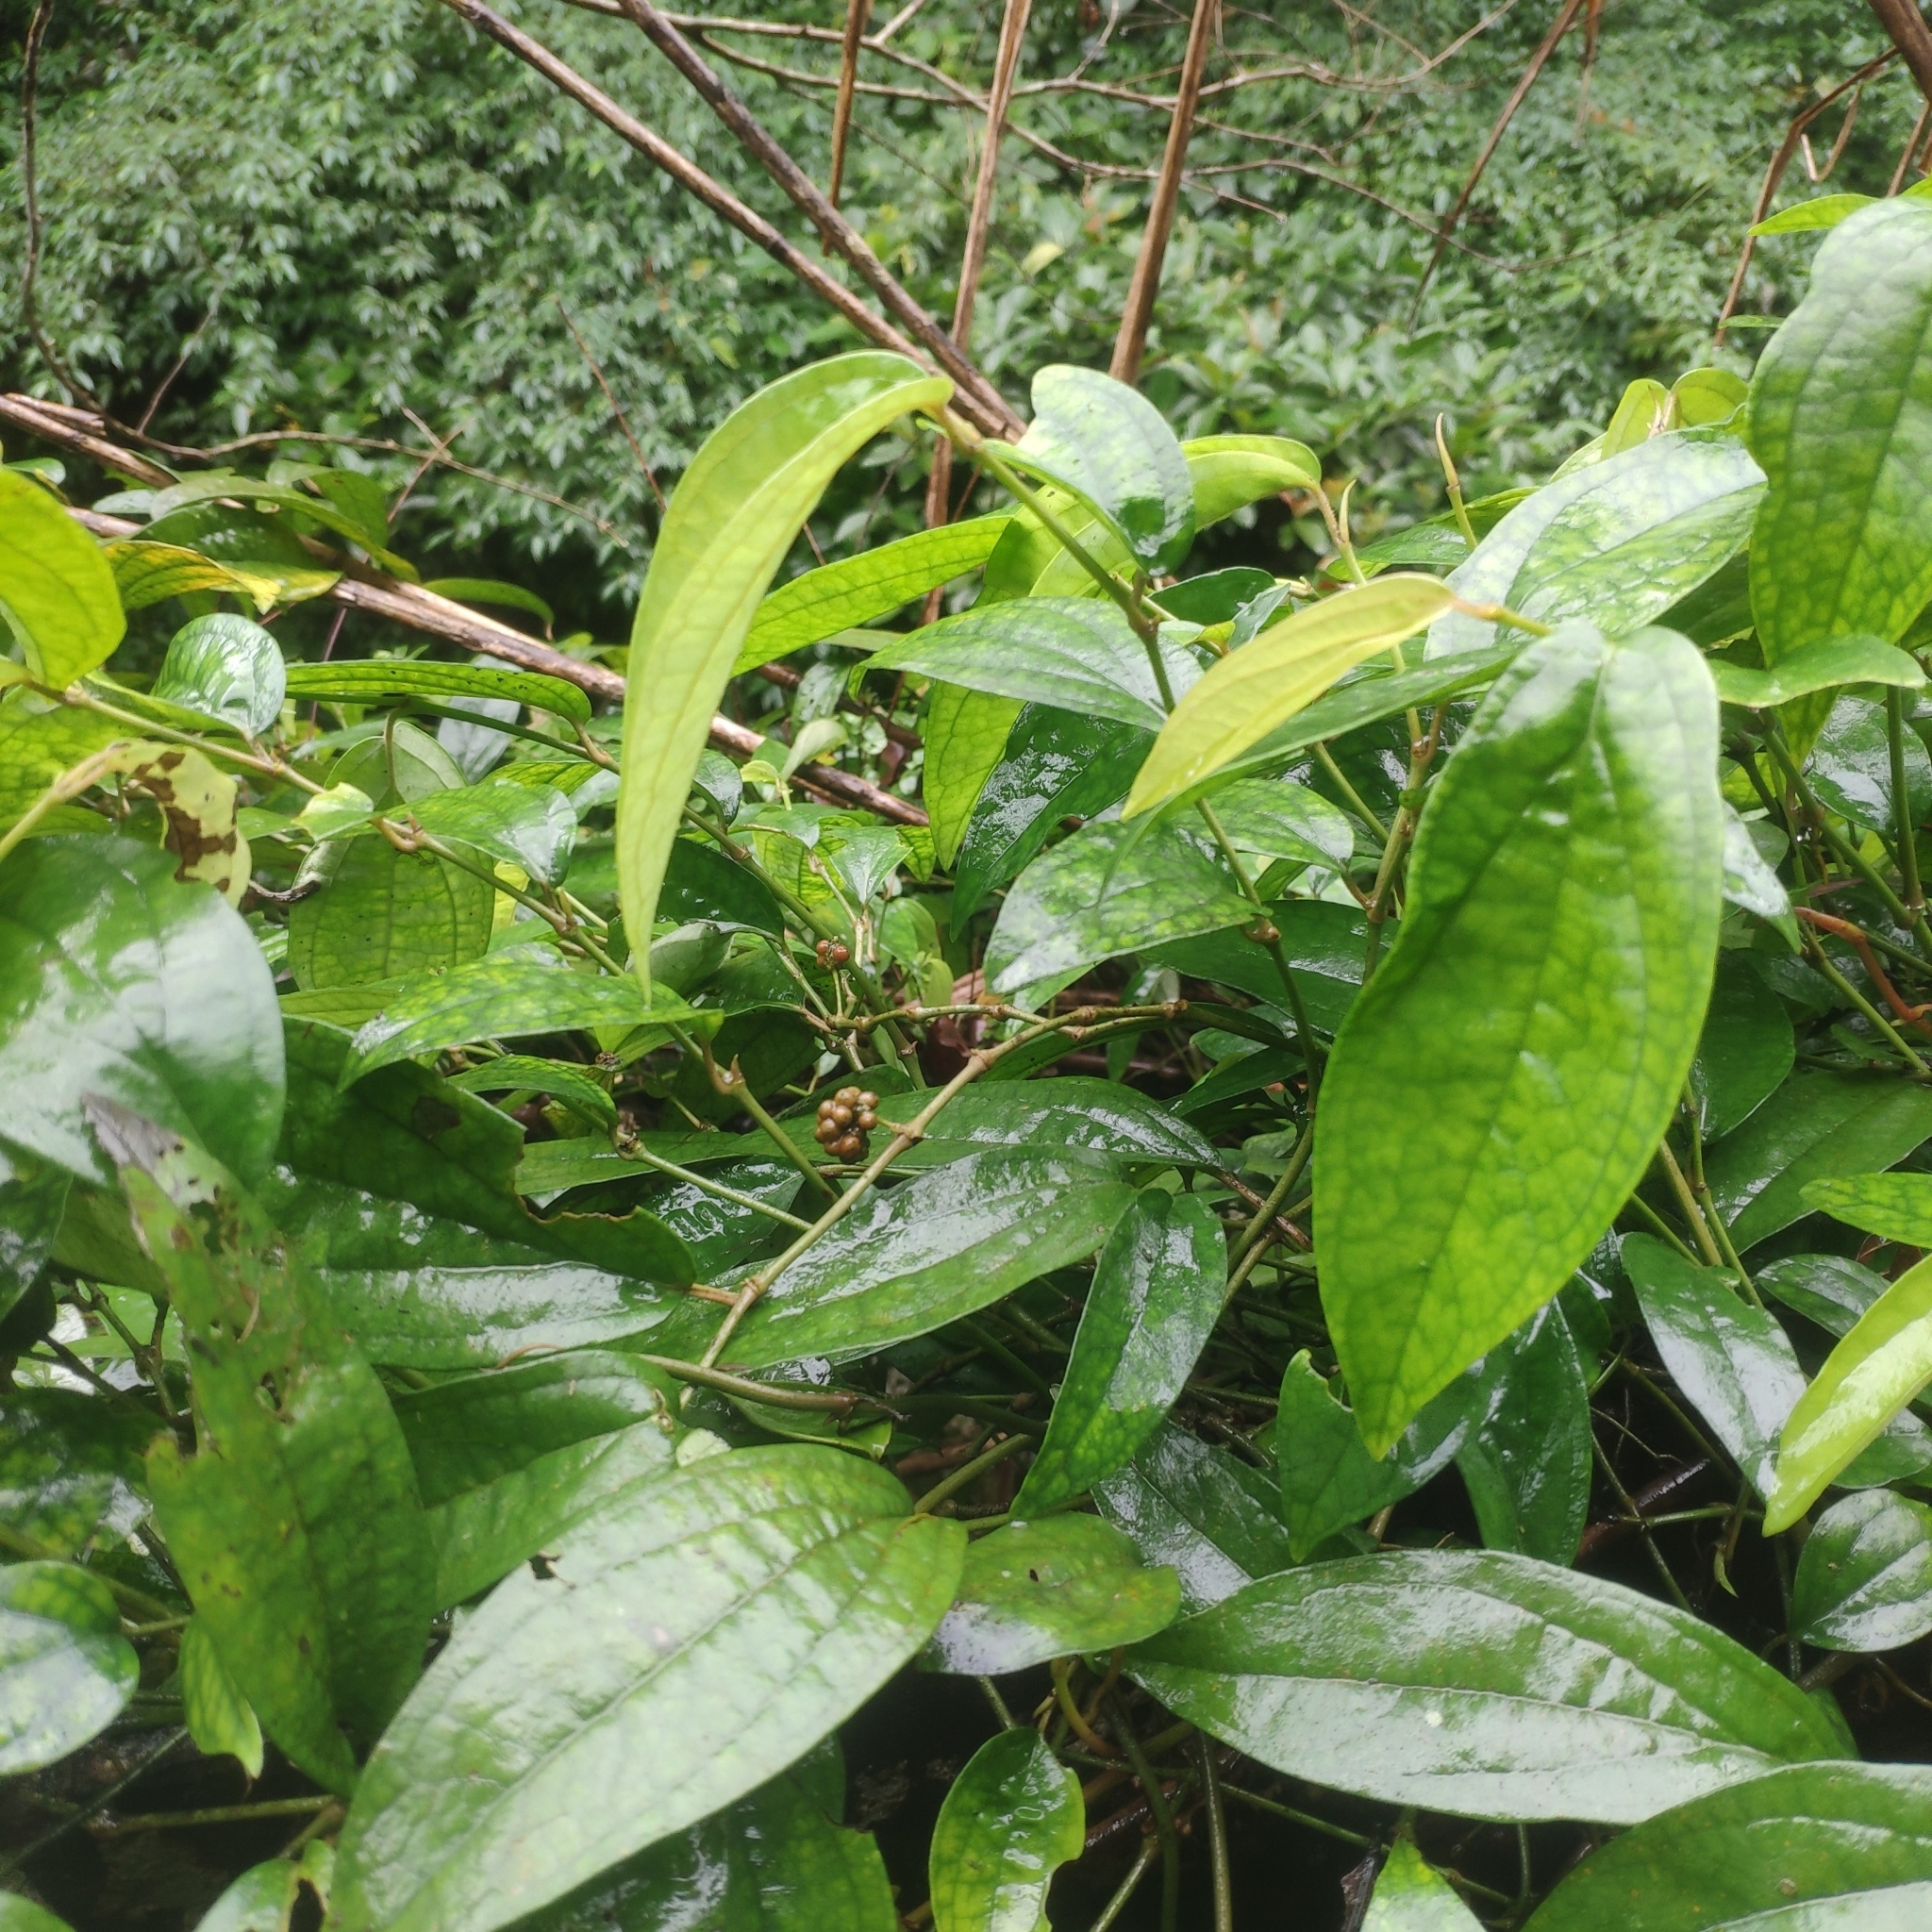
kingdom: Plantae
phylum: Tracheophyta
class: Magnoliopsida
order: Piperales
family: Piperaceae
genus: Piper
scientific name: Piper kadsura
